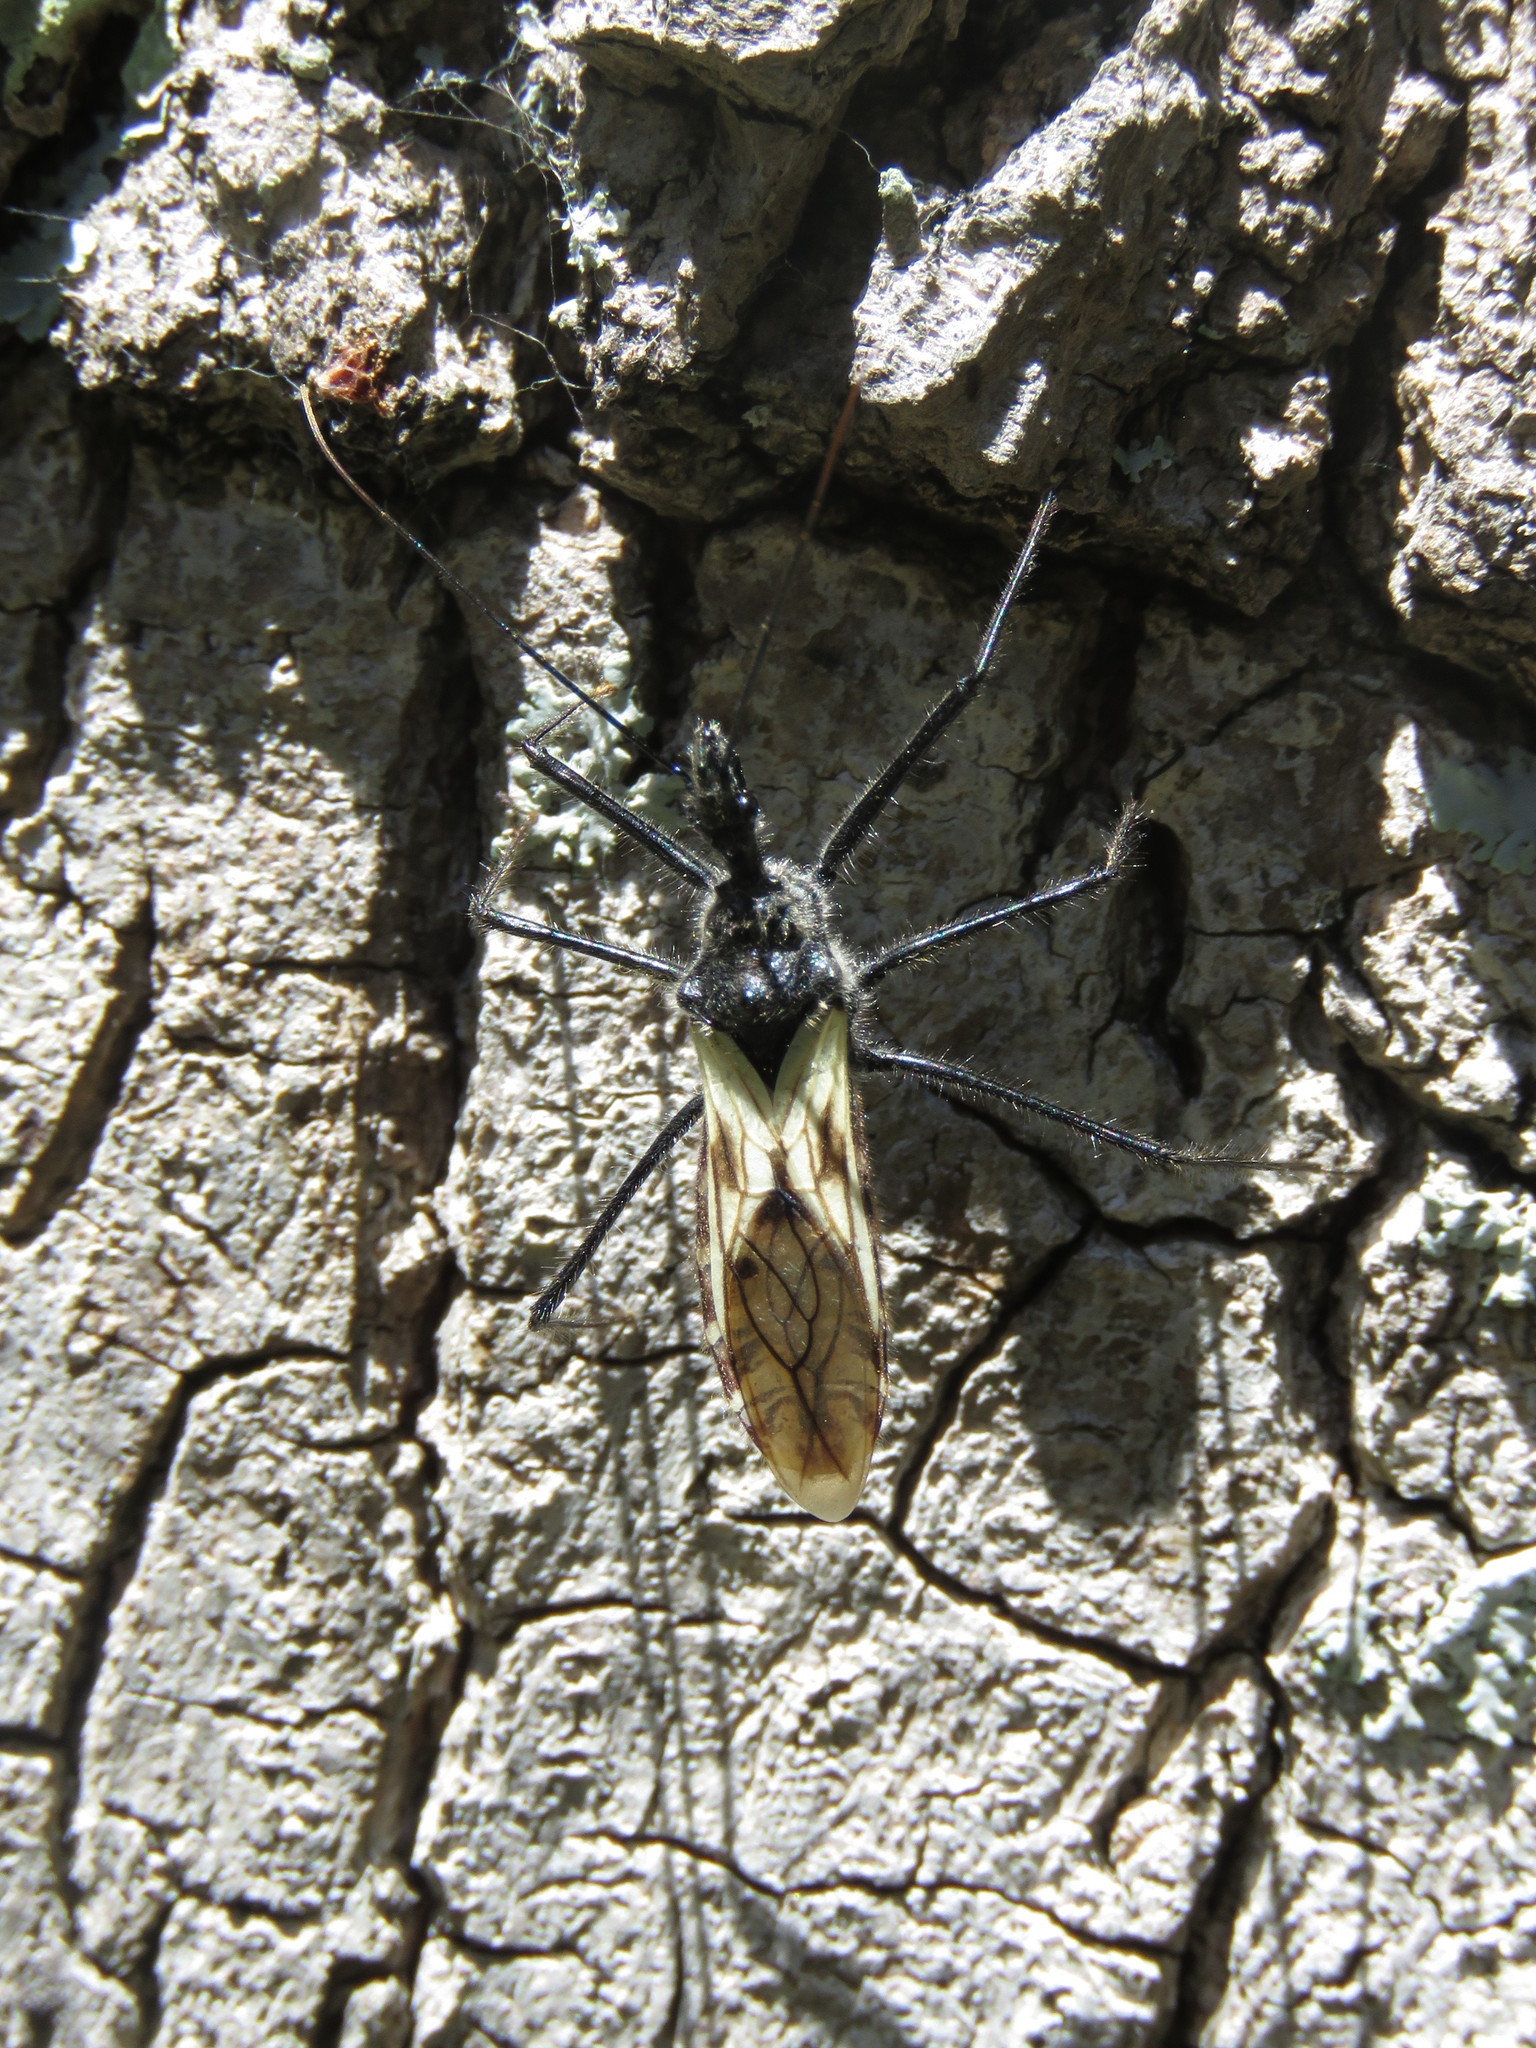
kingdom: Animalia
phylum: Arthropoda
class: Insecta
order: Hemiptera
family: Reduviidae
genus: Ambastus
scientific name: Ambastus villosus
